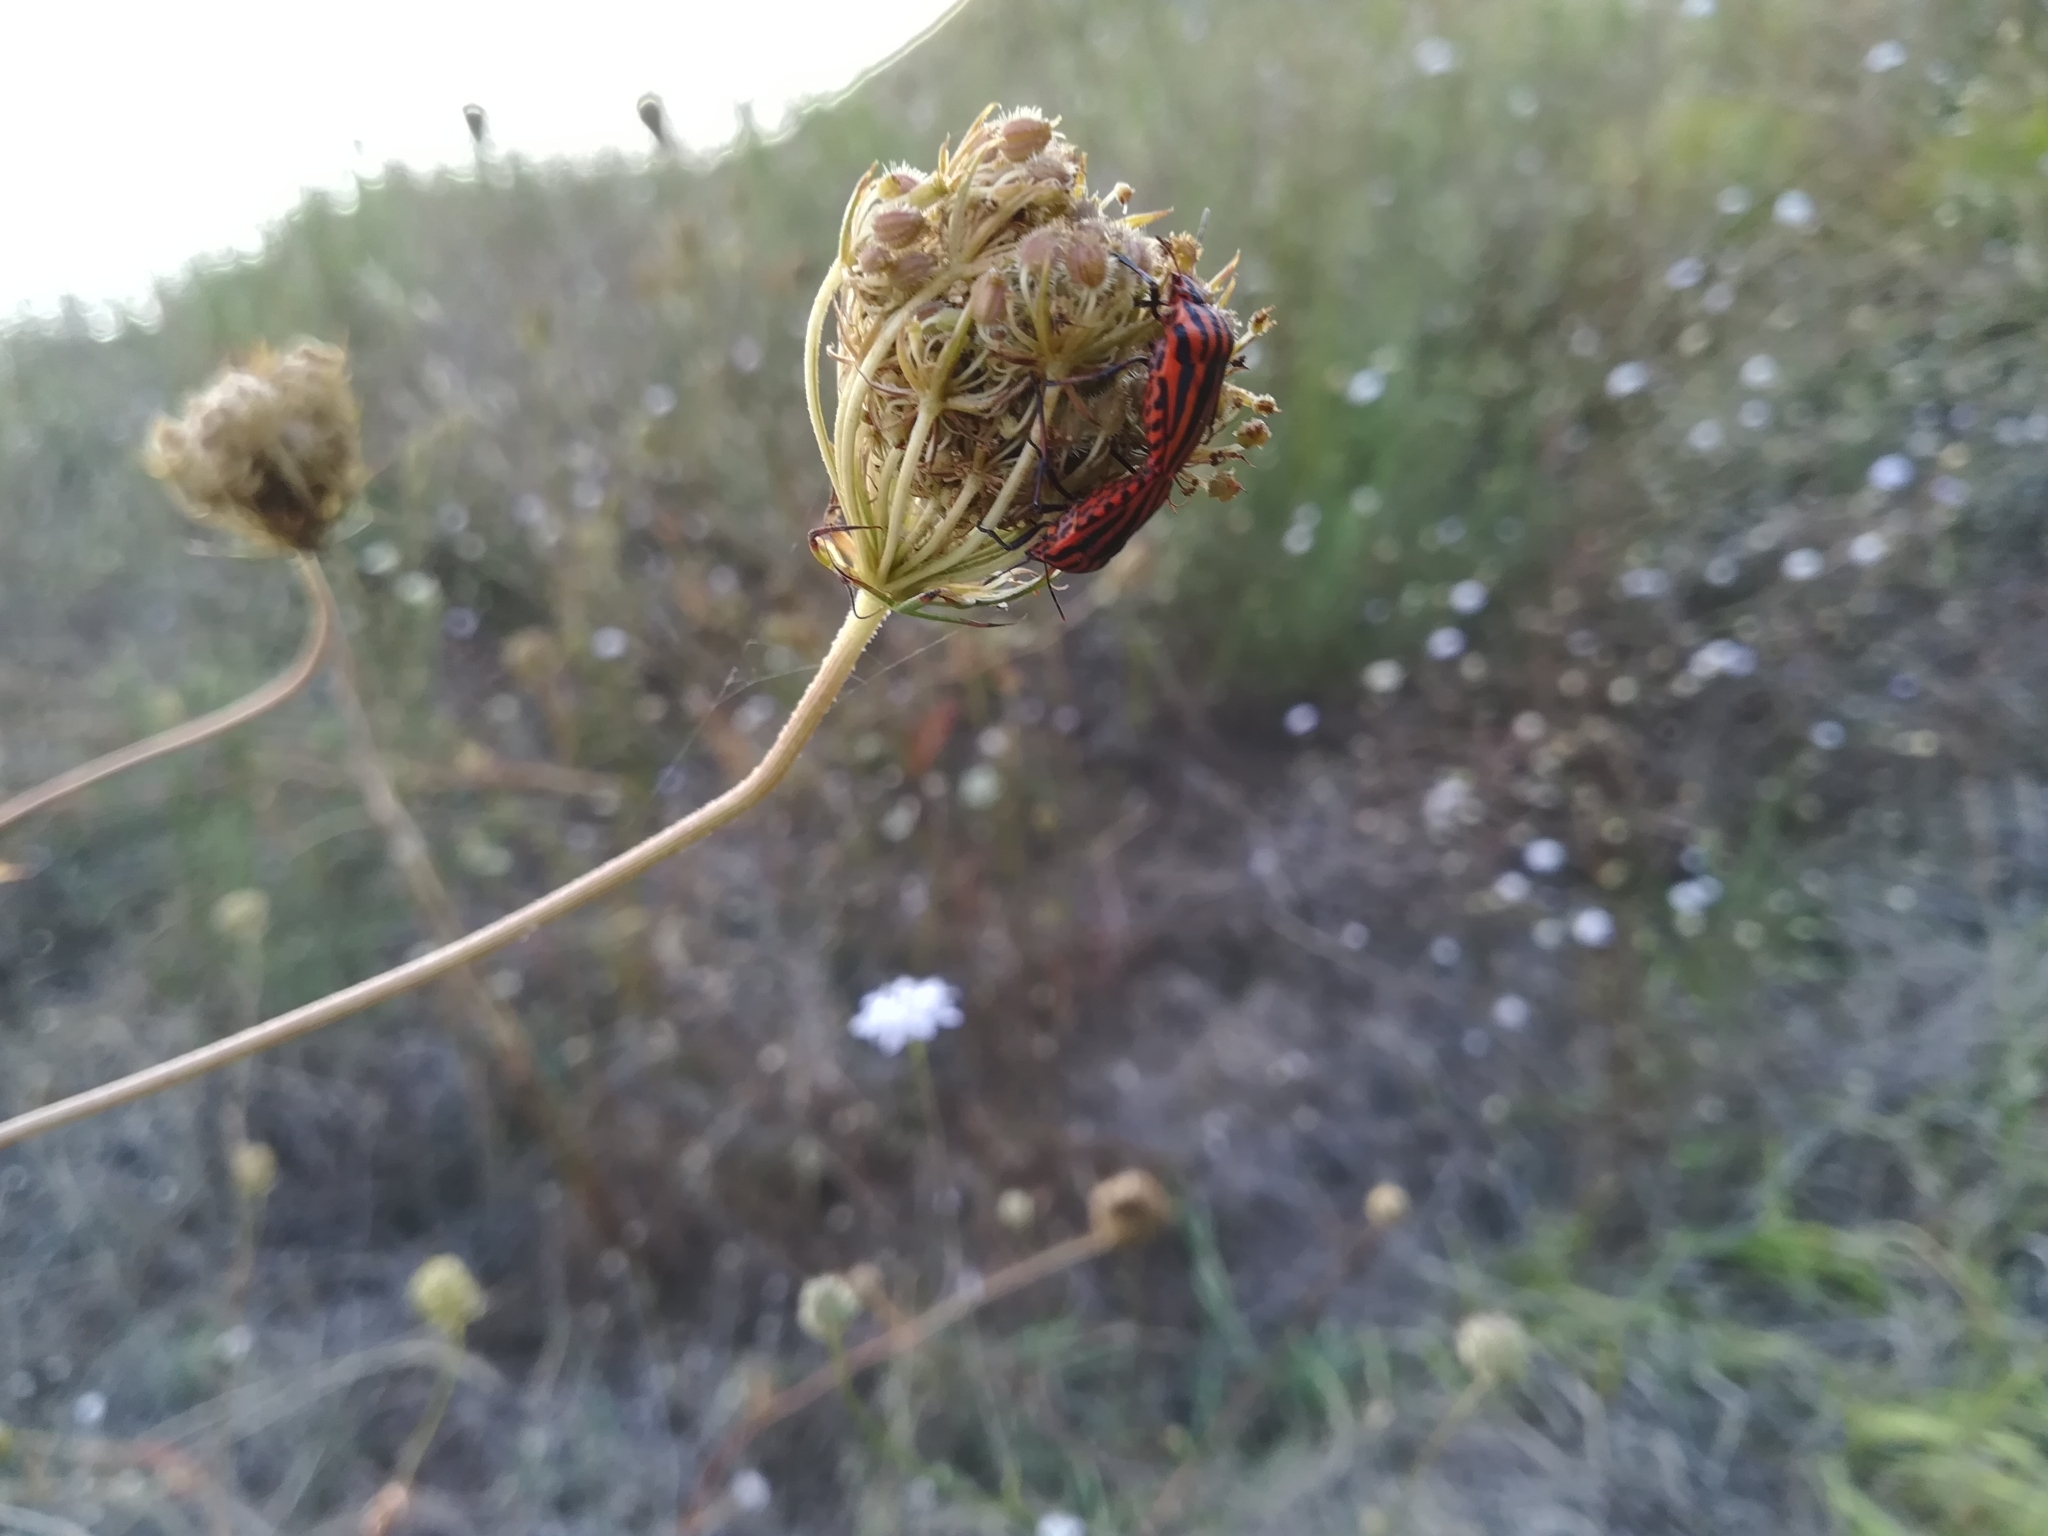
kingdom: Animalia
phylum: Arthropoda
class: Insecta
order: Hemiptera
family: Pentatomidae
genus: Graphosoma
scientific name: Graphosoma italicum
